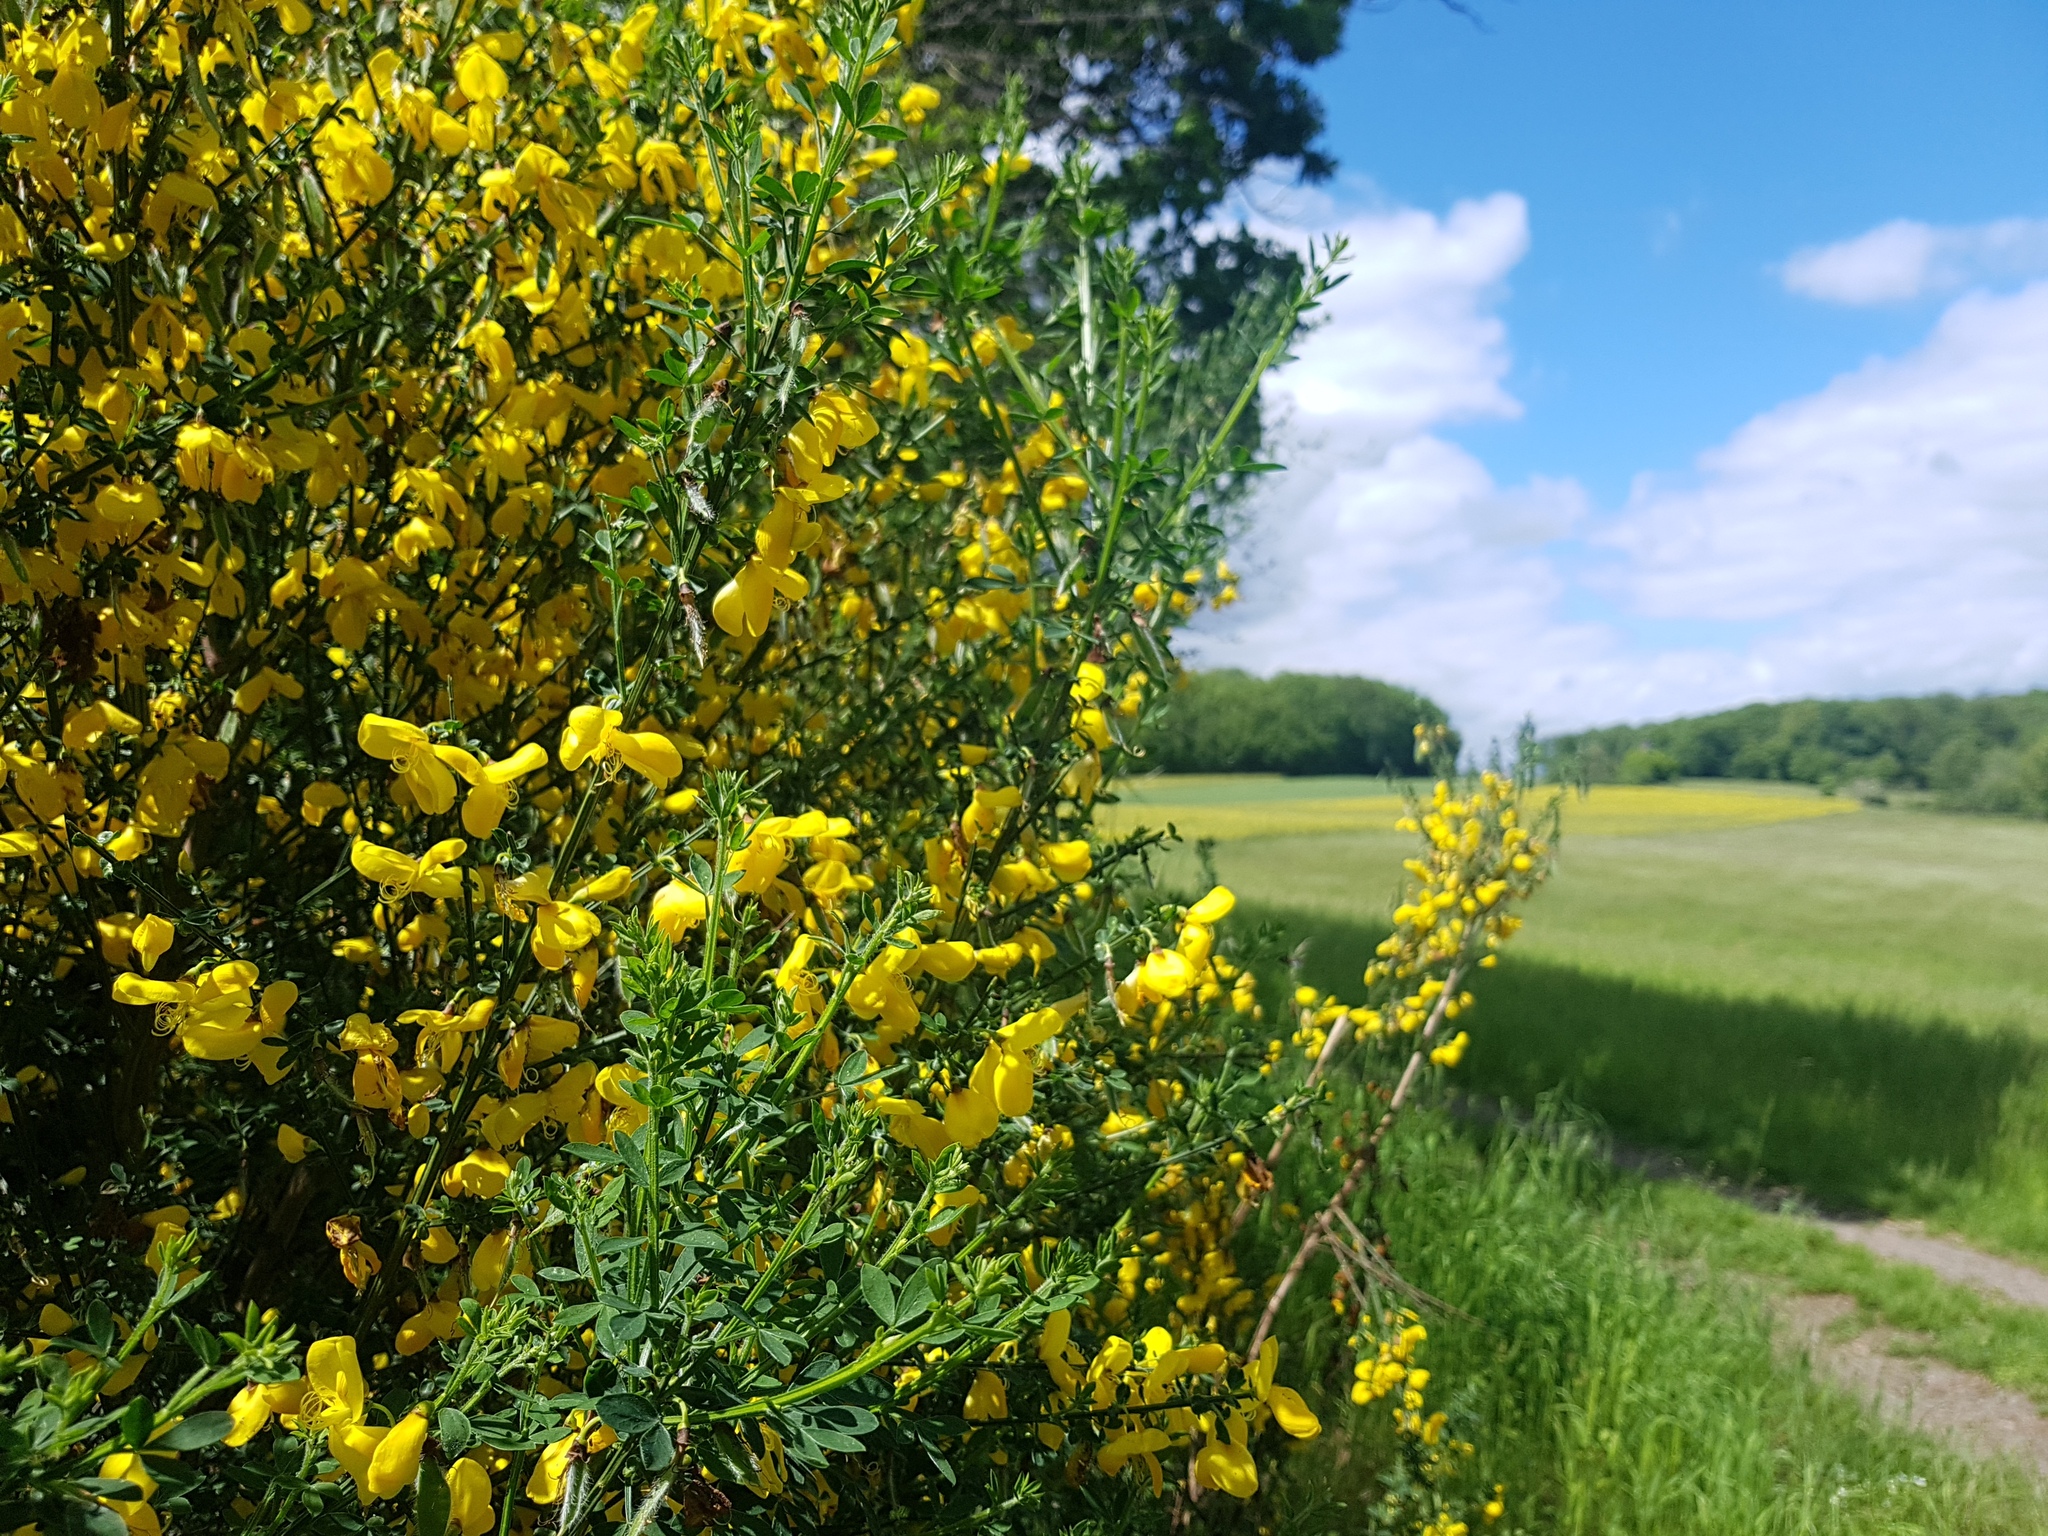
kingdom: Plantae
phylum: Tracheophyta
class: Magnoliopsida
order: Fabales
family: Fabaceae
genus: Cytisus
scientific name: Cytisus scoparius
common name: Scotch broom
